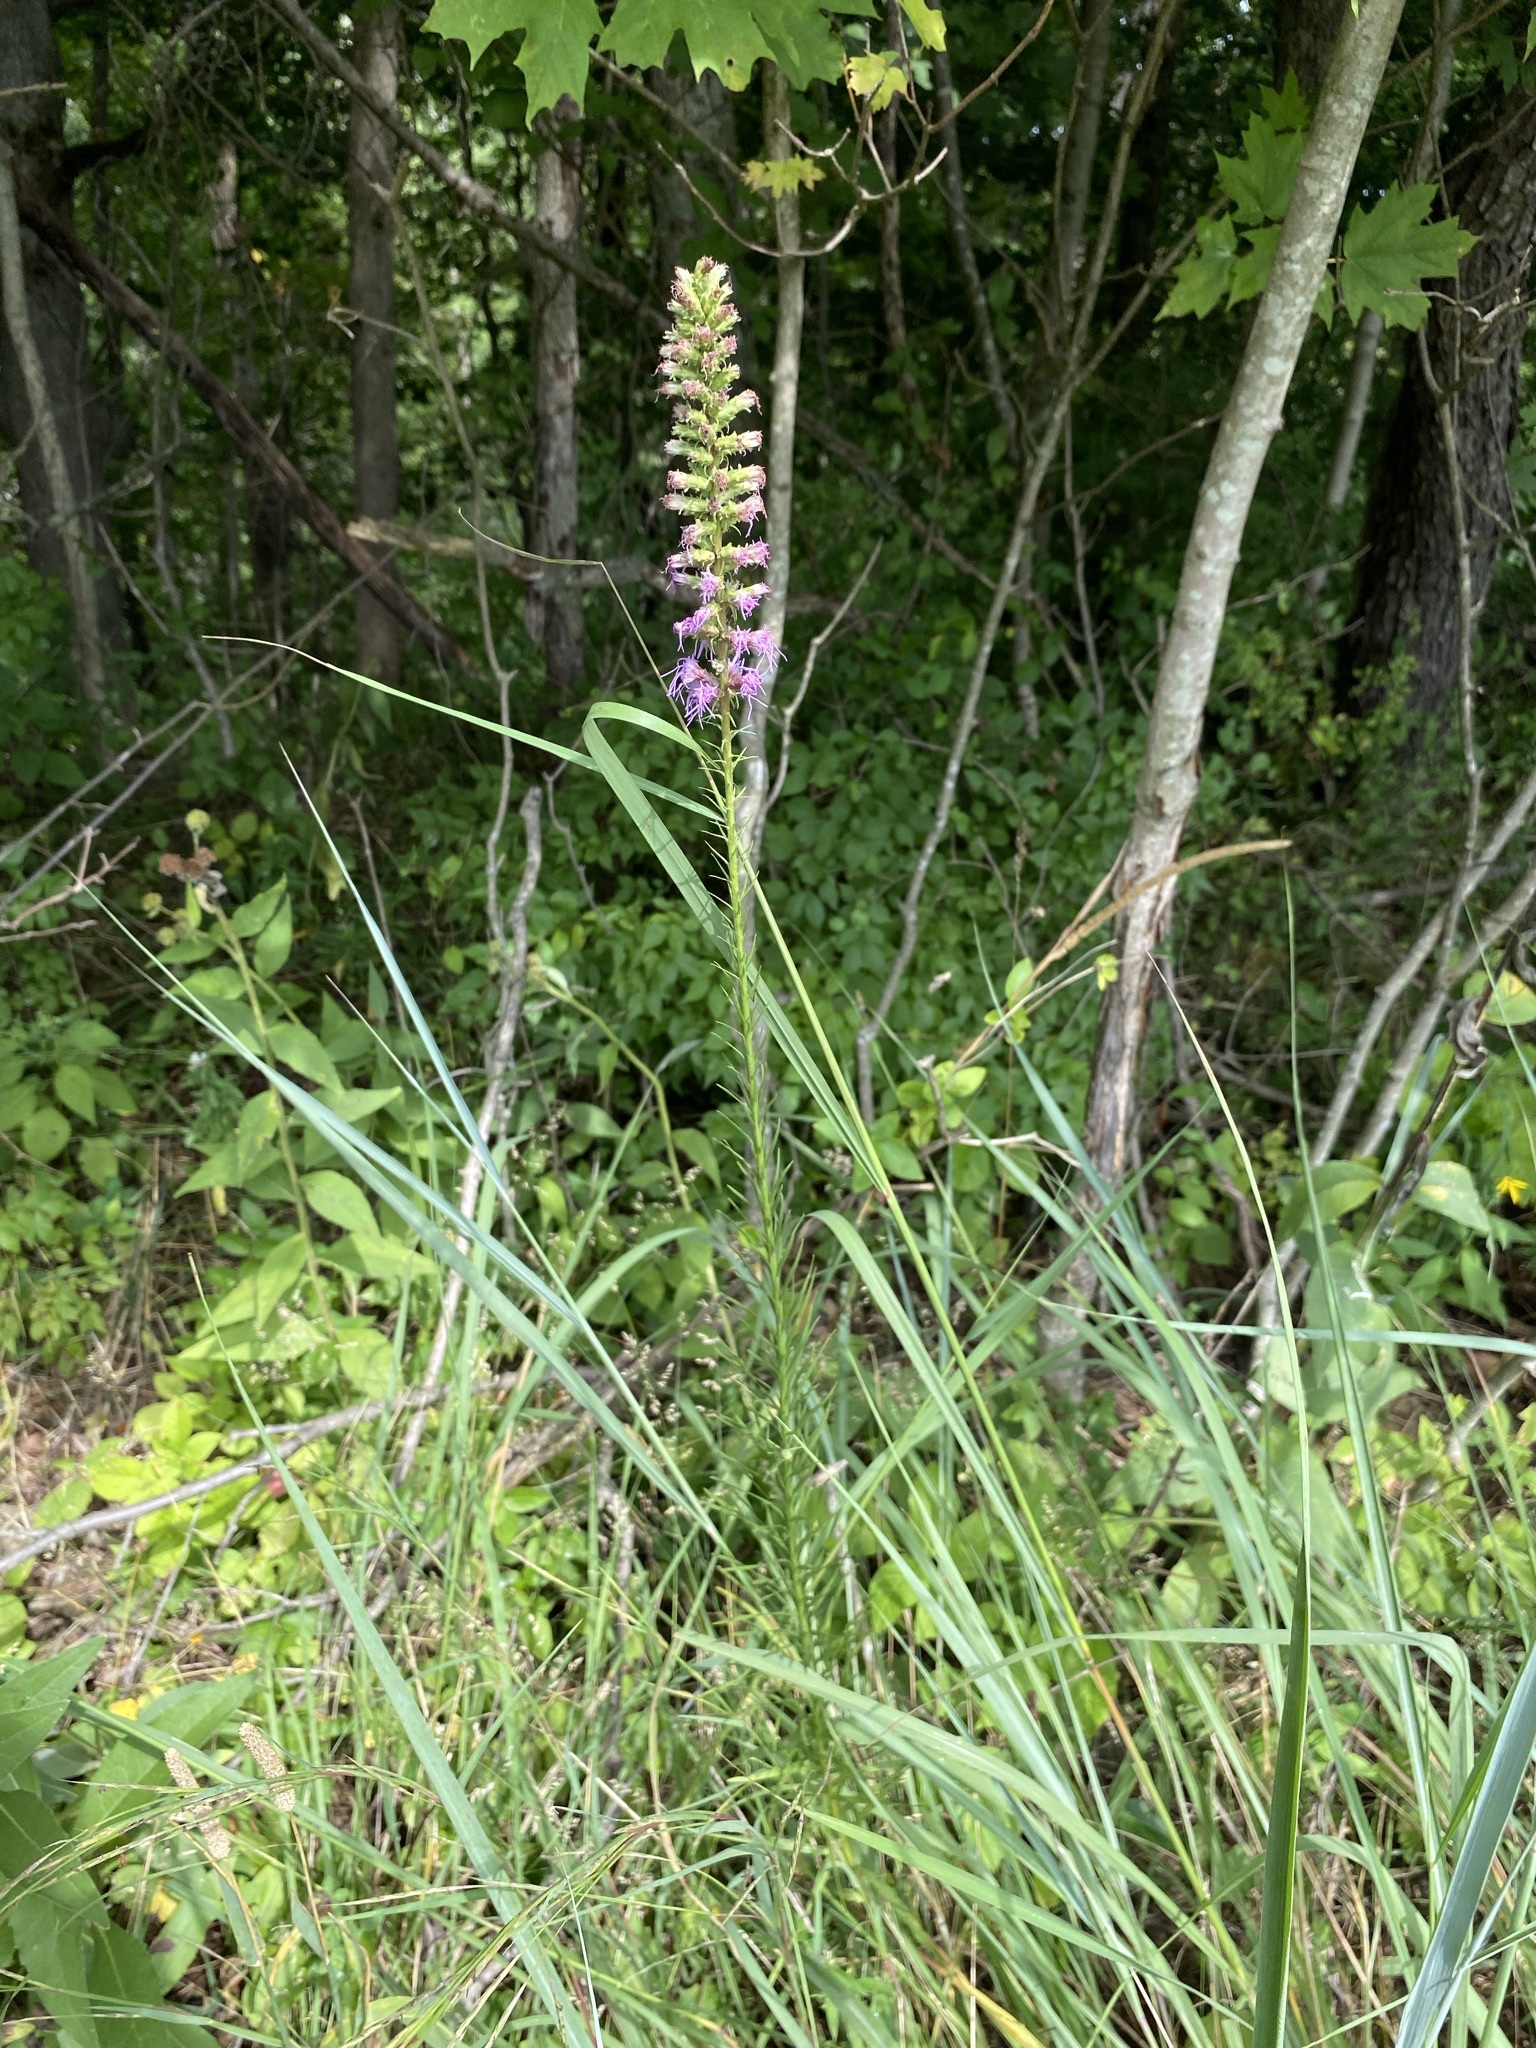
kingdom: Plantae
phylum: Tracheophyta
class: Magnoliopsida
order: Asterales
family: Asteraceae
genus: Liatris
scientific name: Liatris pycnostachya
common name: Cattail gayfeather
